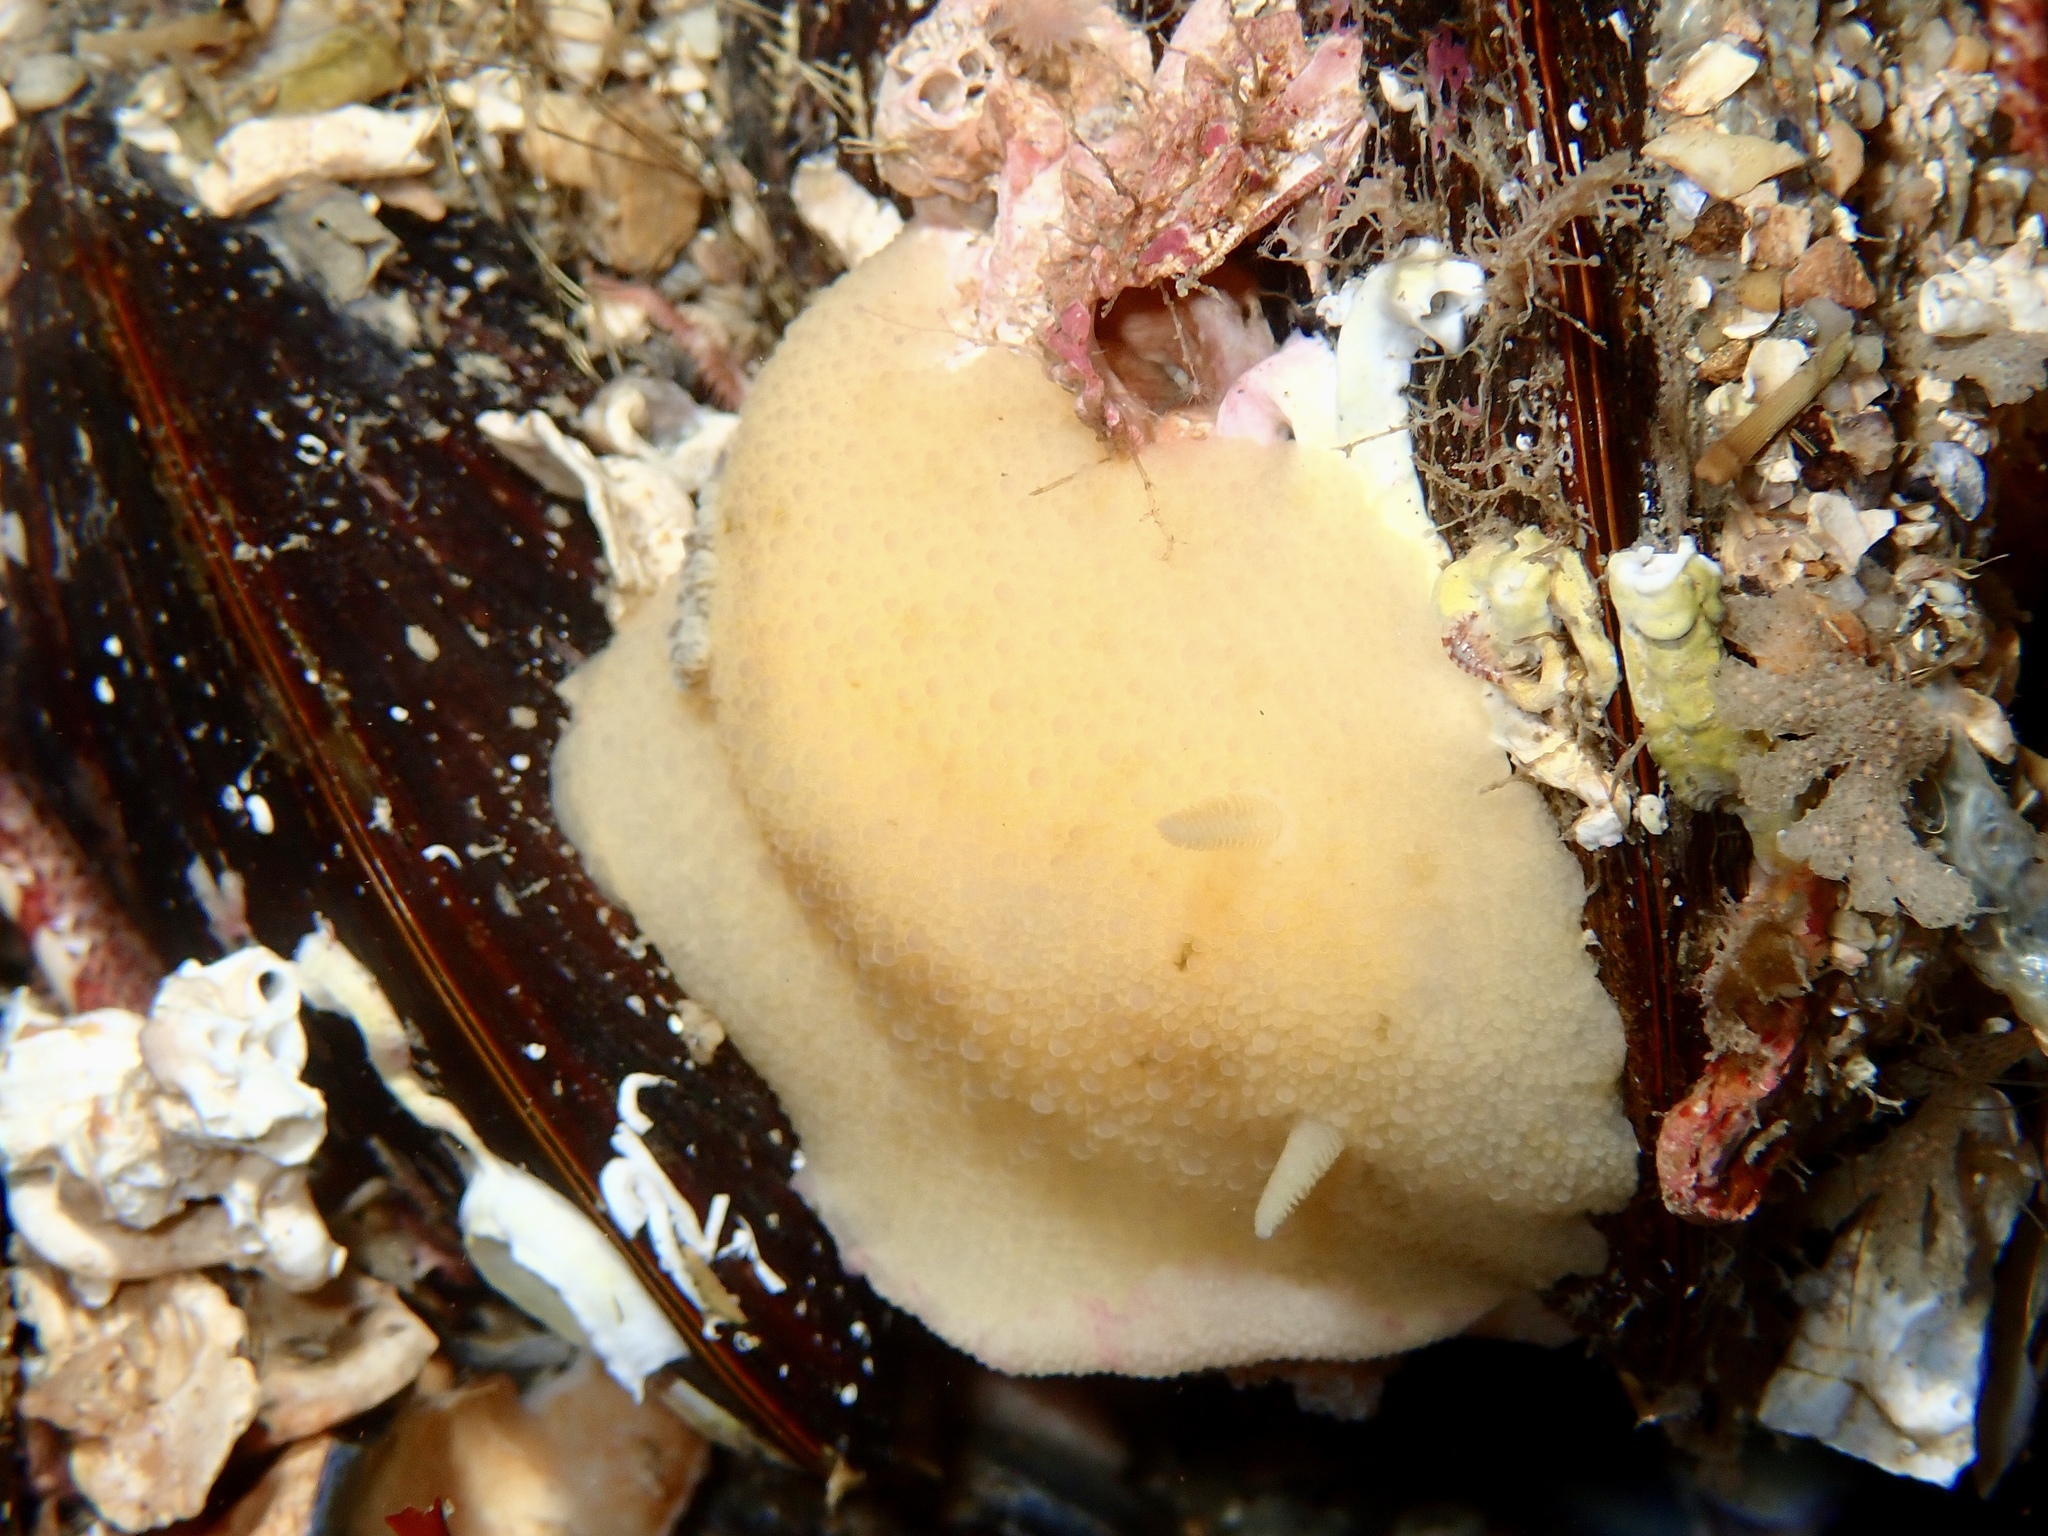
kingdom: Animalia
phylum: Mollusca
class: Gastropoda
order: Nudibranchia
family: Dorididae
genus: Doris
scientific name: Doris pseudoargus
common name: Sea lemon
